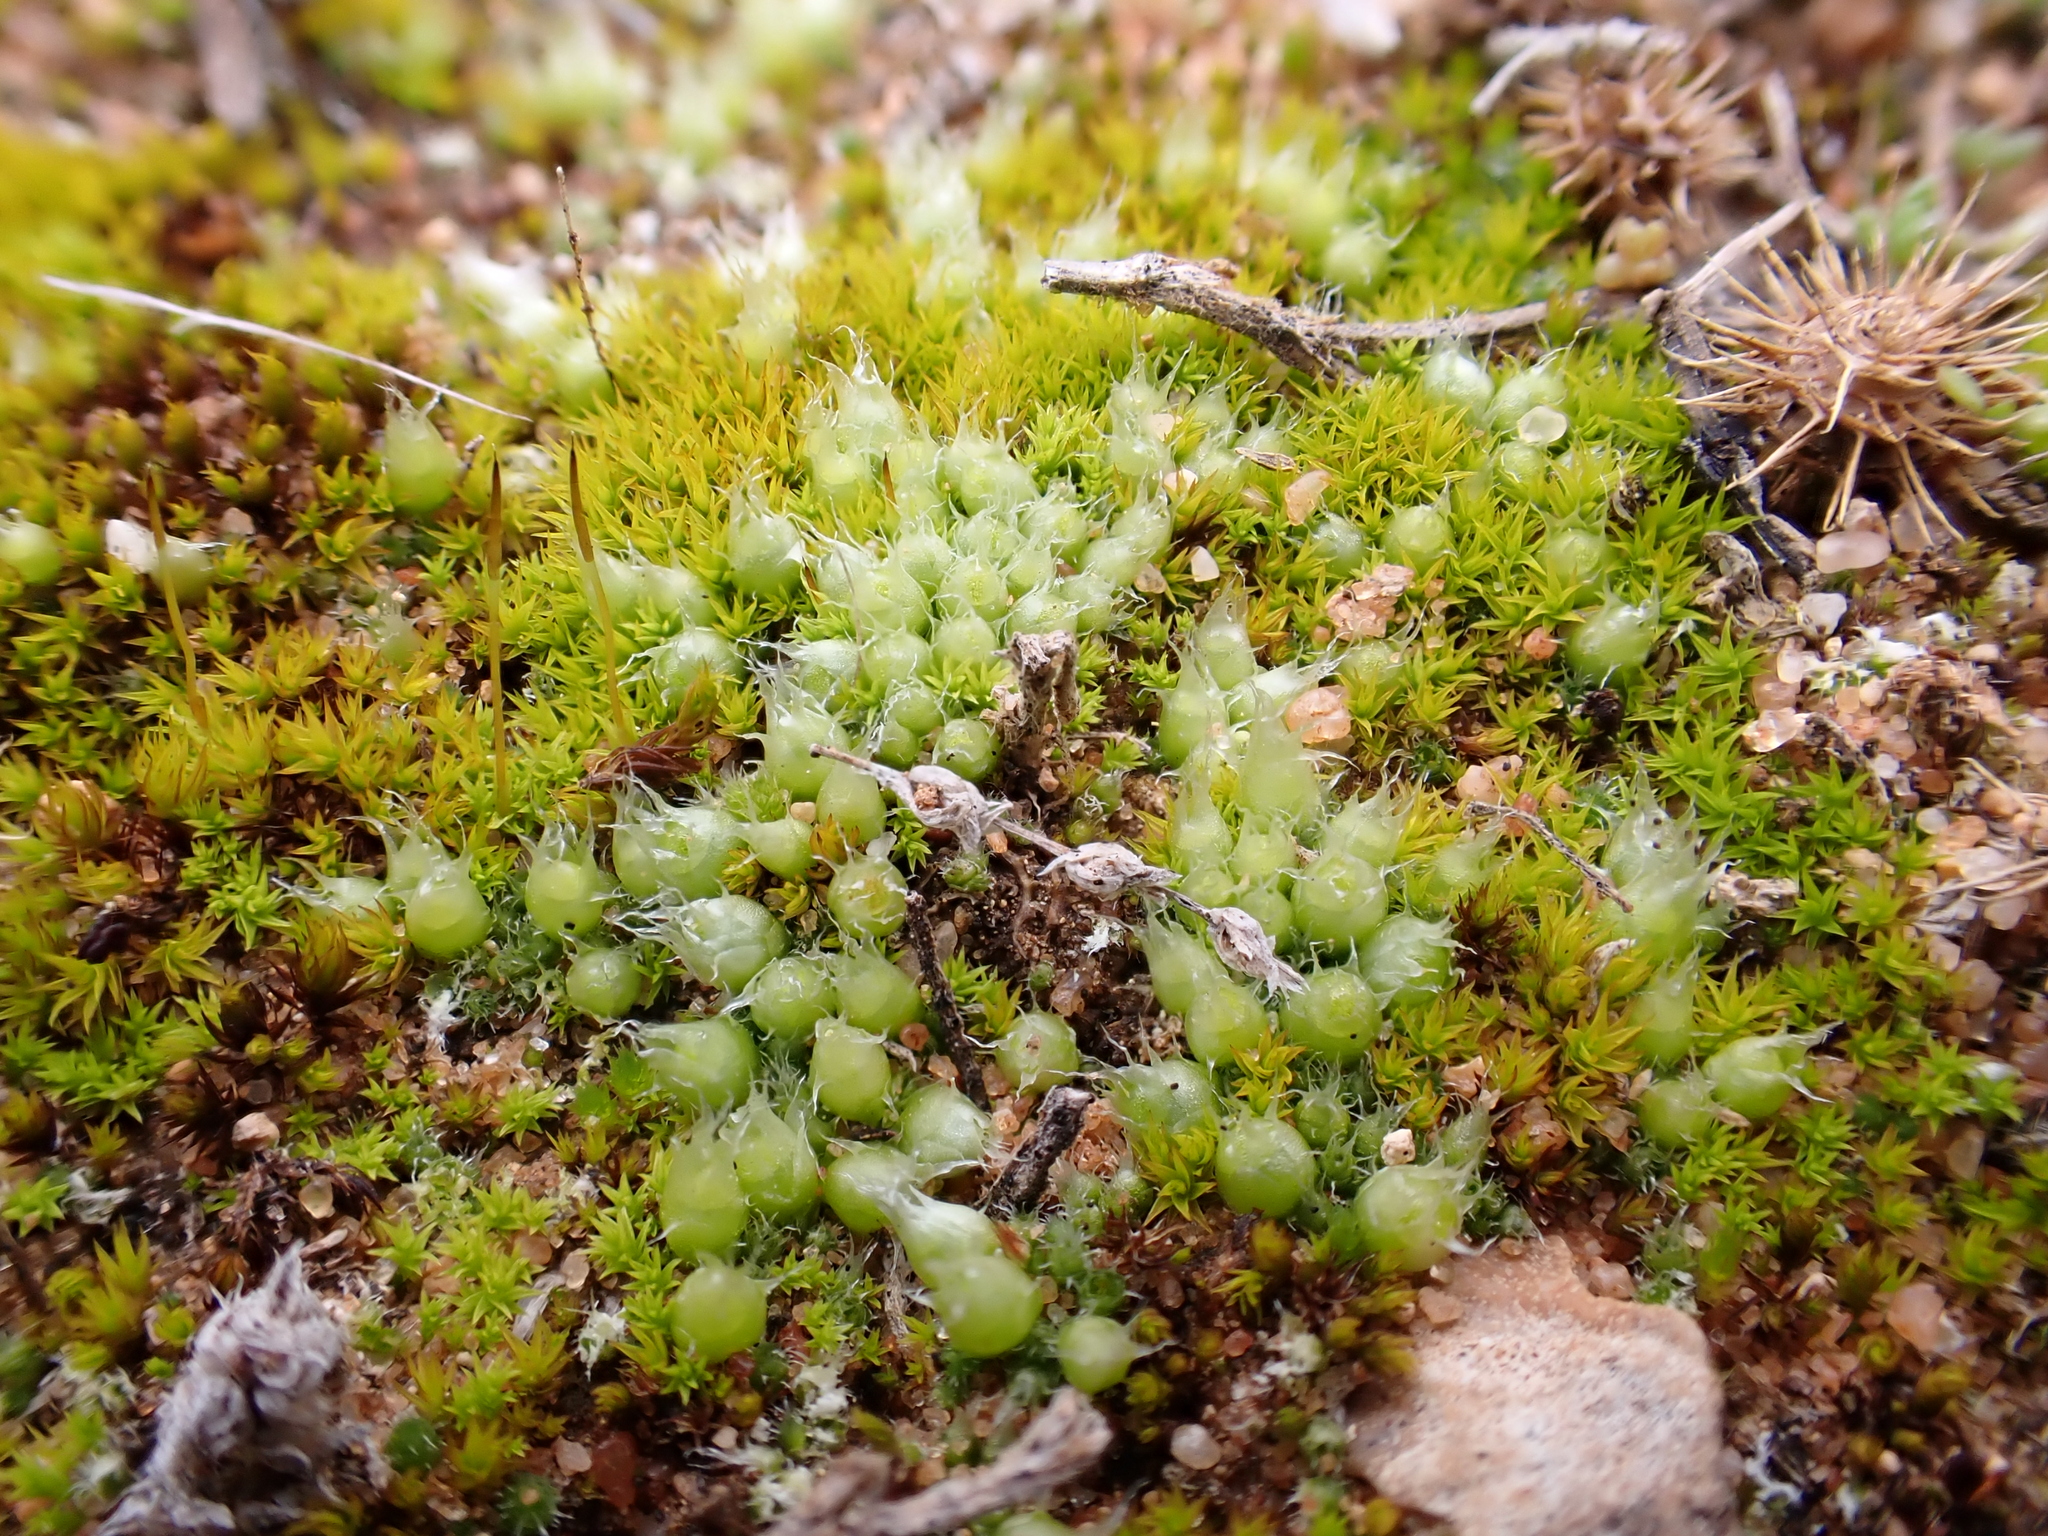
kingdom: Plantae
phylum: Bryophyta
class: Bryopsida
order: Gigaspermales
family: Gigaspermaceae
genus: Gigaspermum
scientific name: Gigaspermum repens
